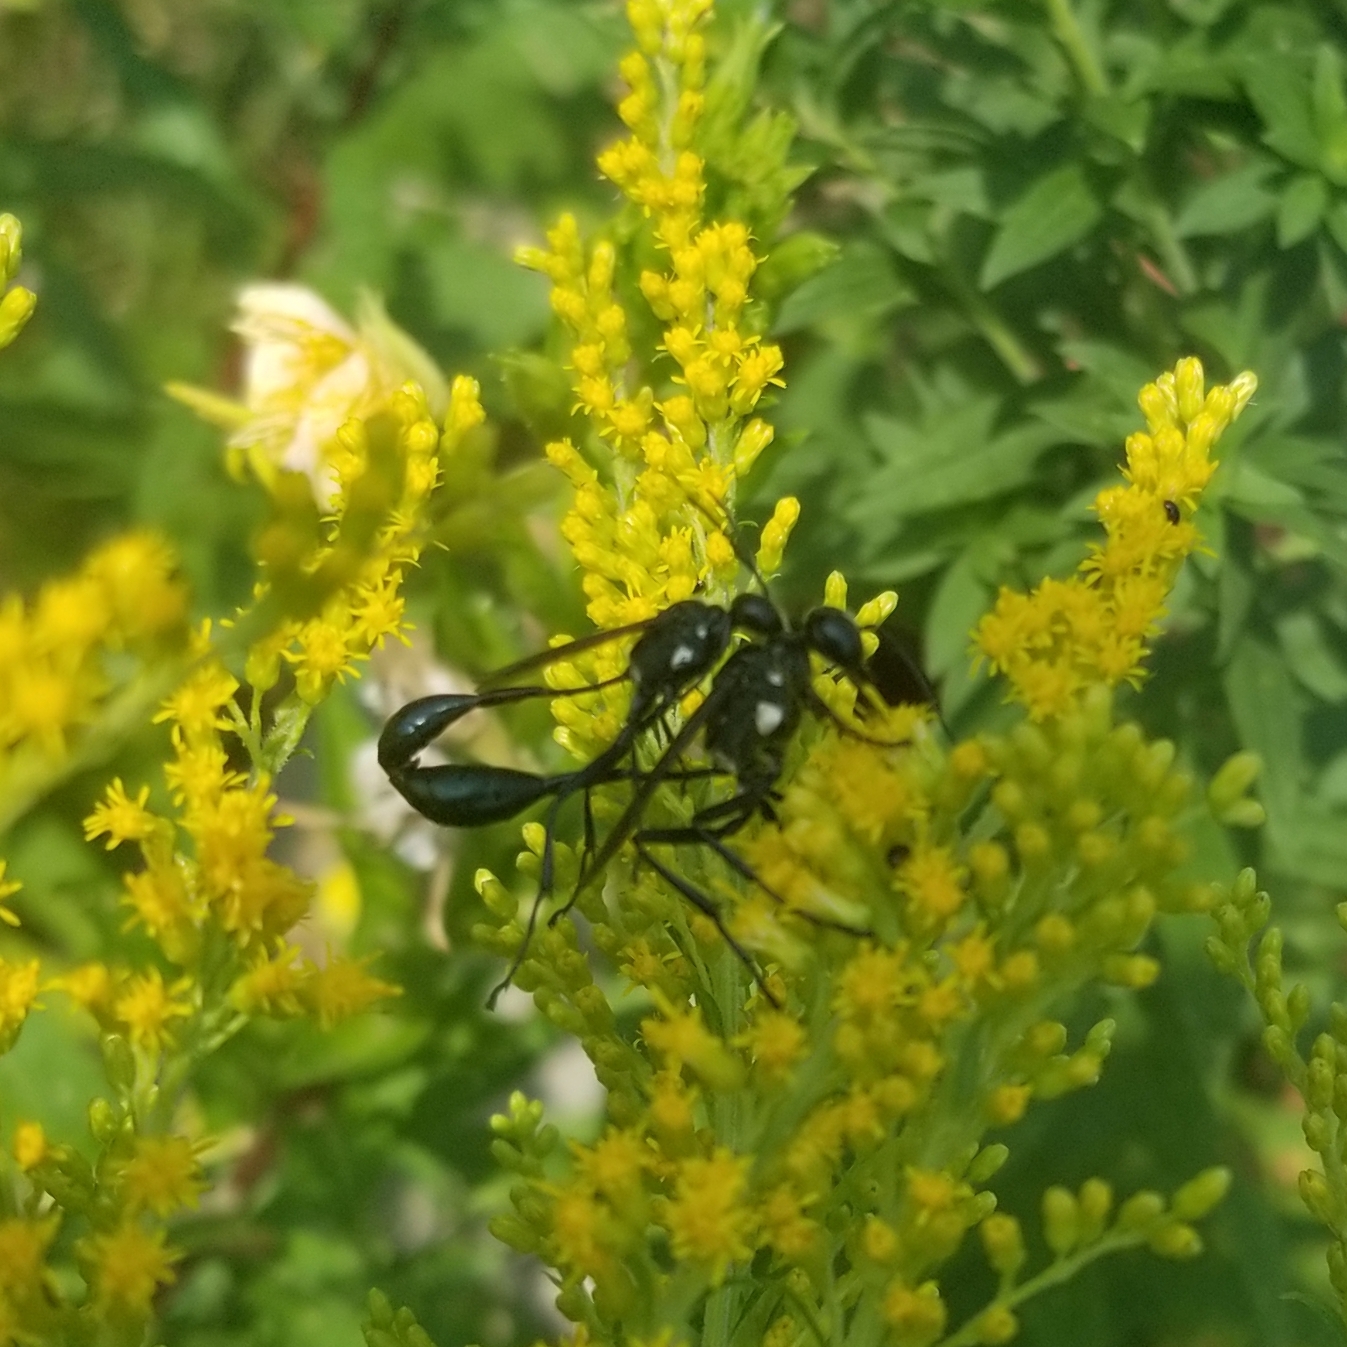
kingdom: Animalia
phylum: Arthropoda
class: Insecta
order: Hymenoptera
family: Sphecidae
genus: Eremnophila
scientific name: Eremnophila aureonotata
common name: Gold-marked thread-waisted wasp
